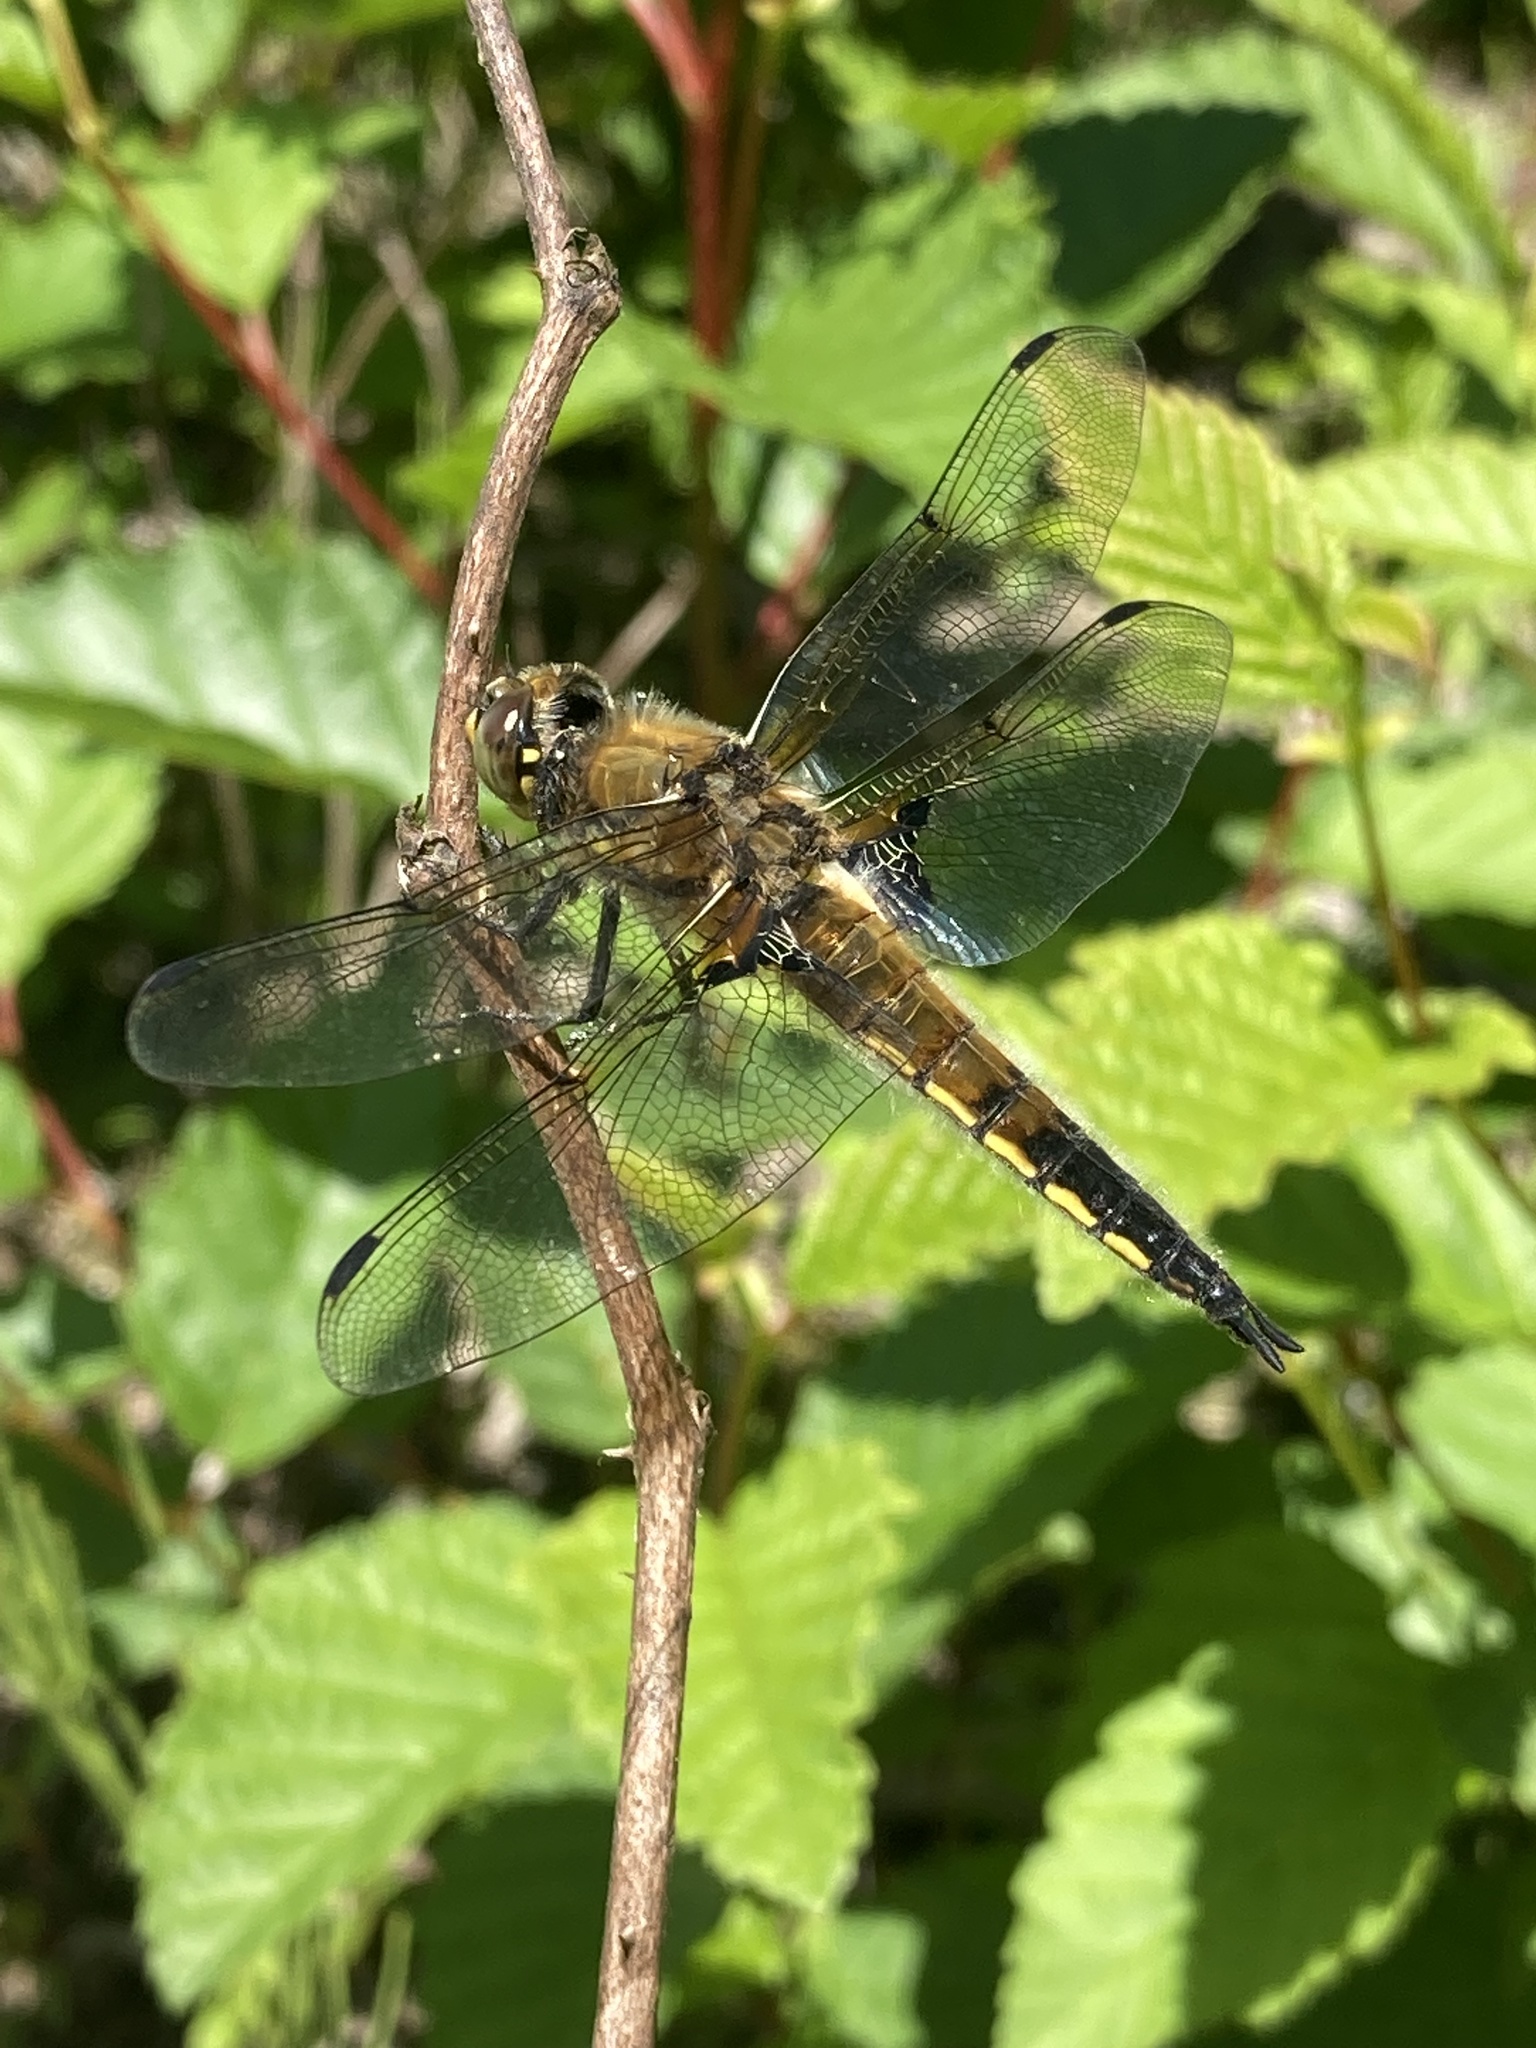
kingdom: Animalia
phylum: Arthropoda
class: Insecta
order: Odonata
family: Libellulidae
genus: Libellula
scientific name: Libellula quadrimaculata
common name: Four-spotted chaser
